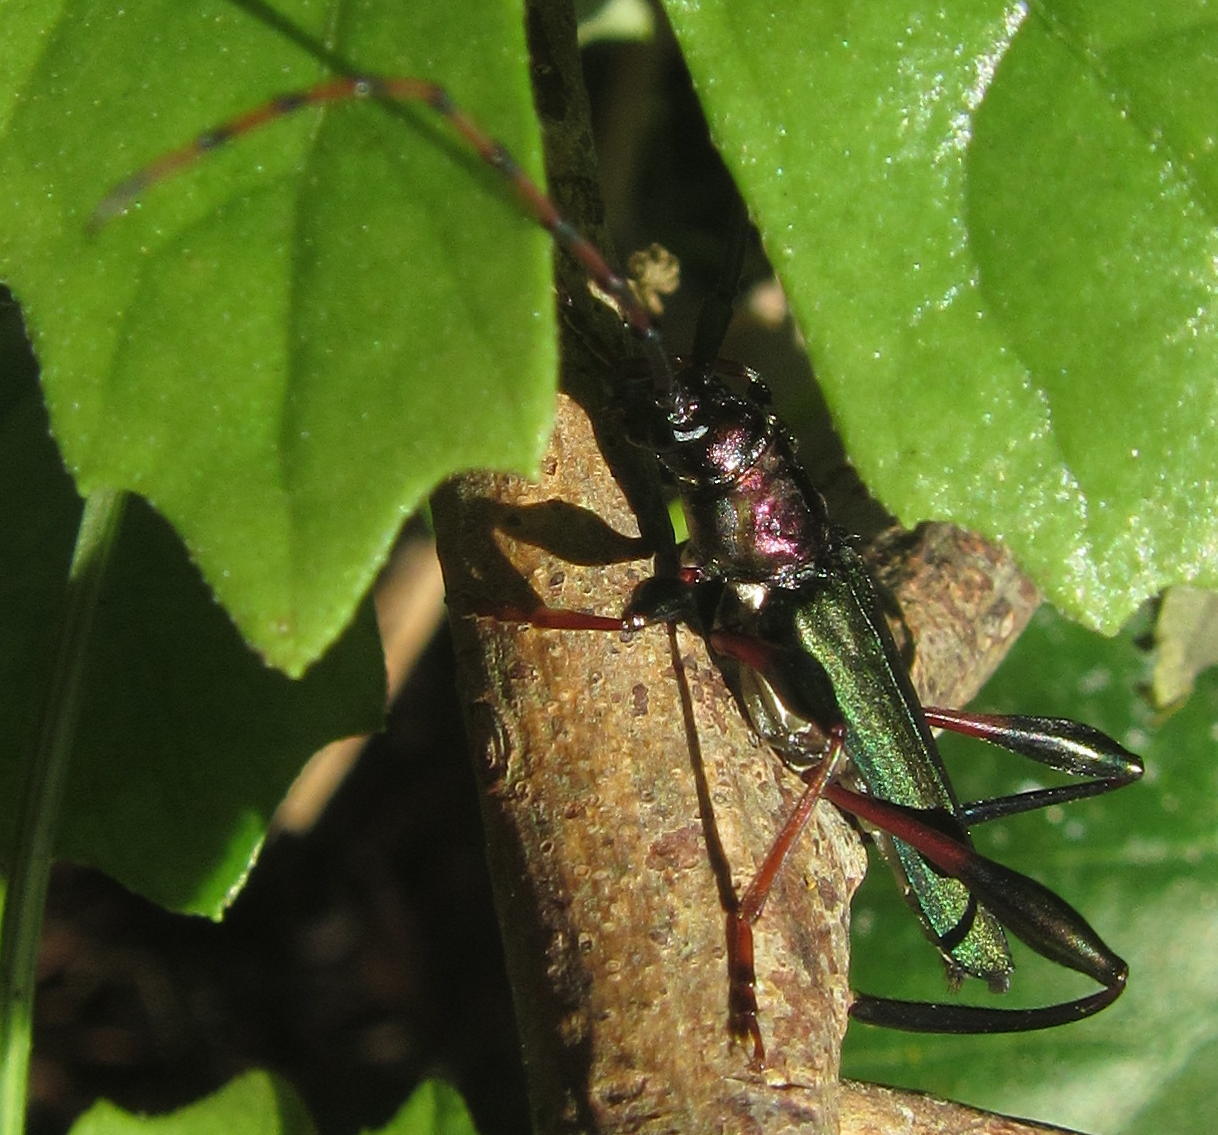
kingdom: Animalia
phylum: Arthropoda
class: Insecta
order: Coleoptera
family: Cerambycidae
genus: Litopus
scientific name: Litopus argentatus
